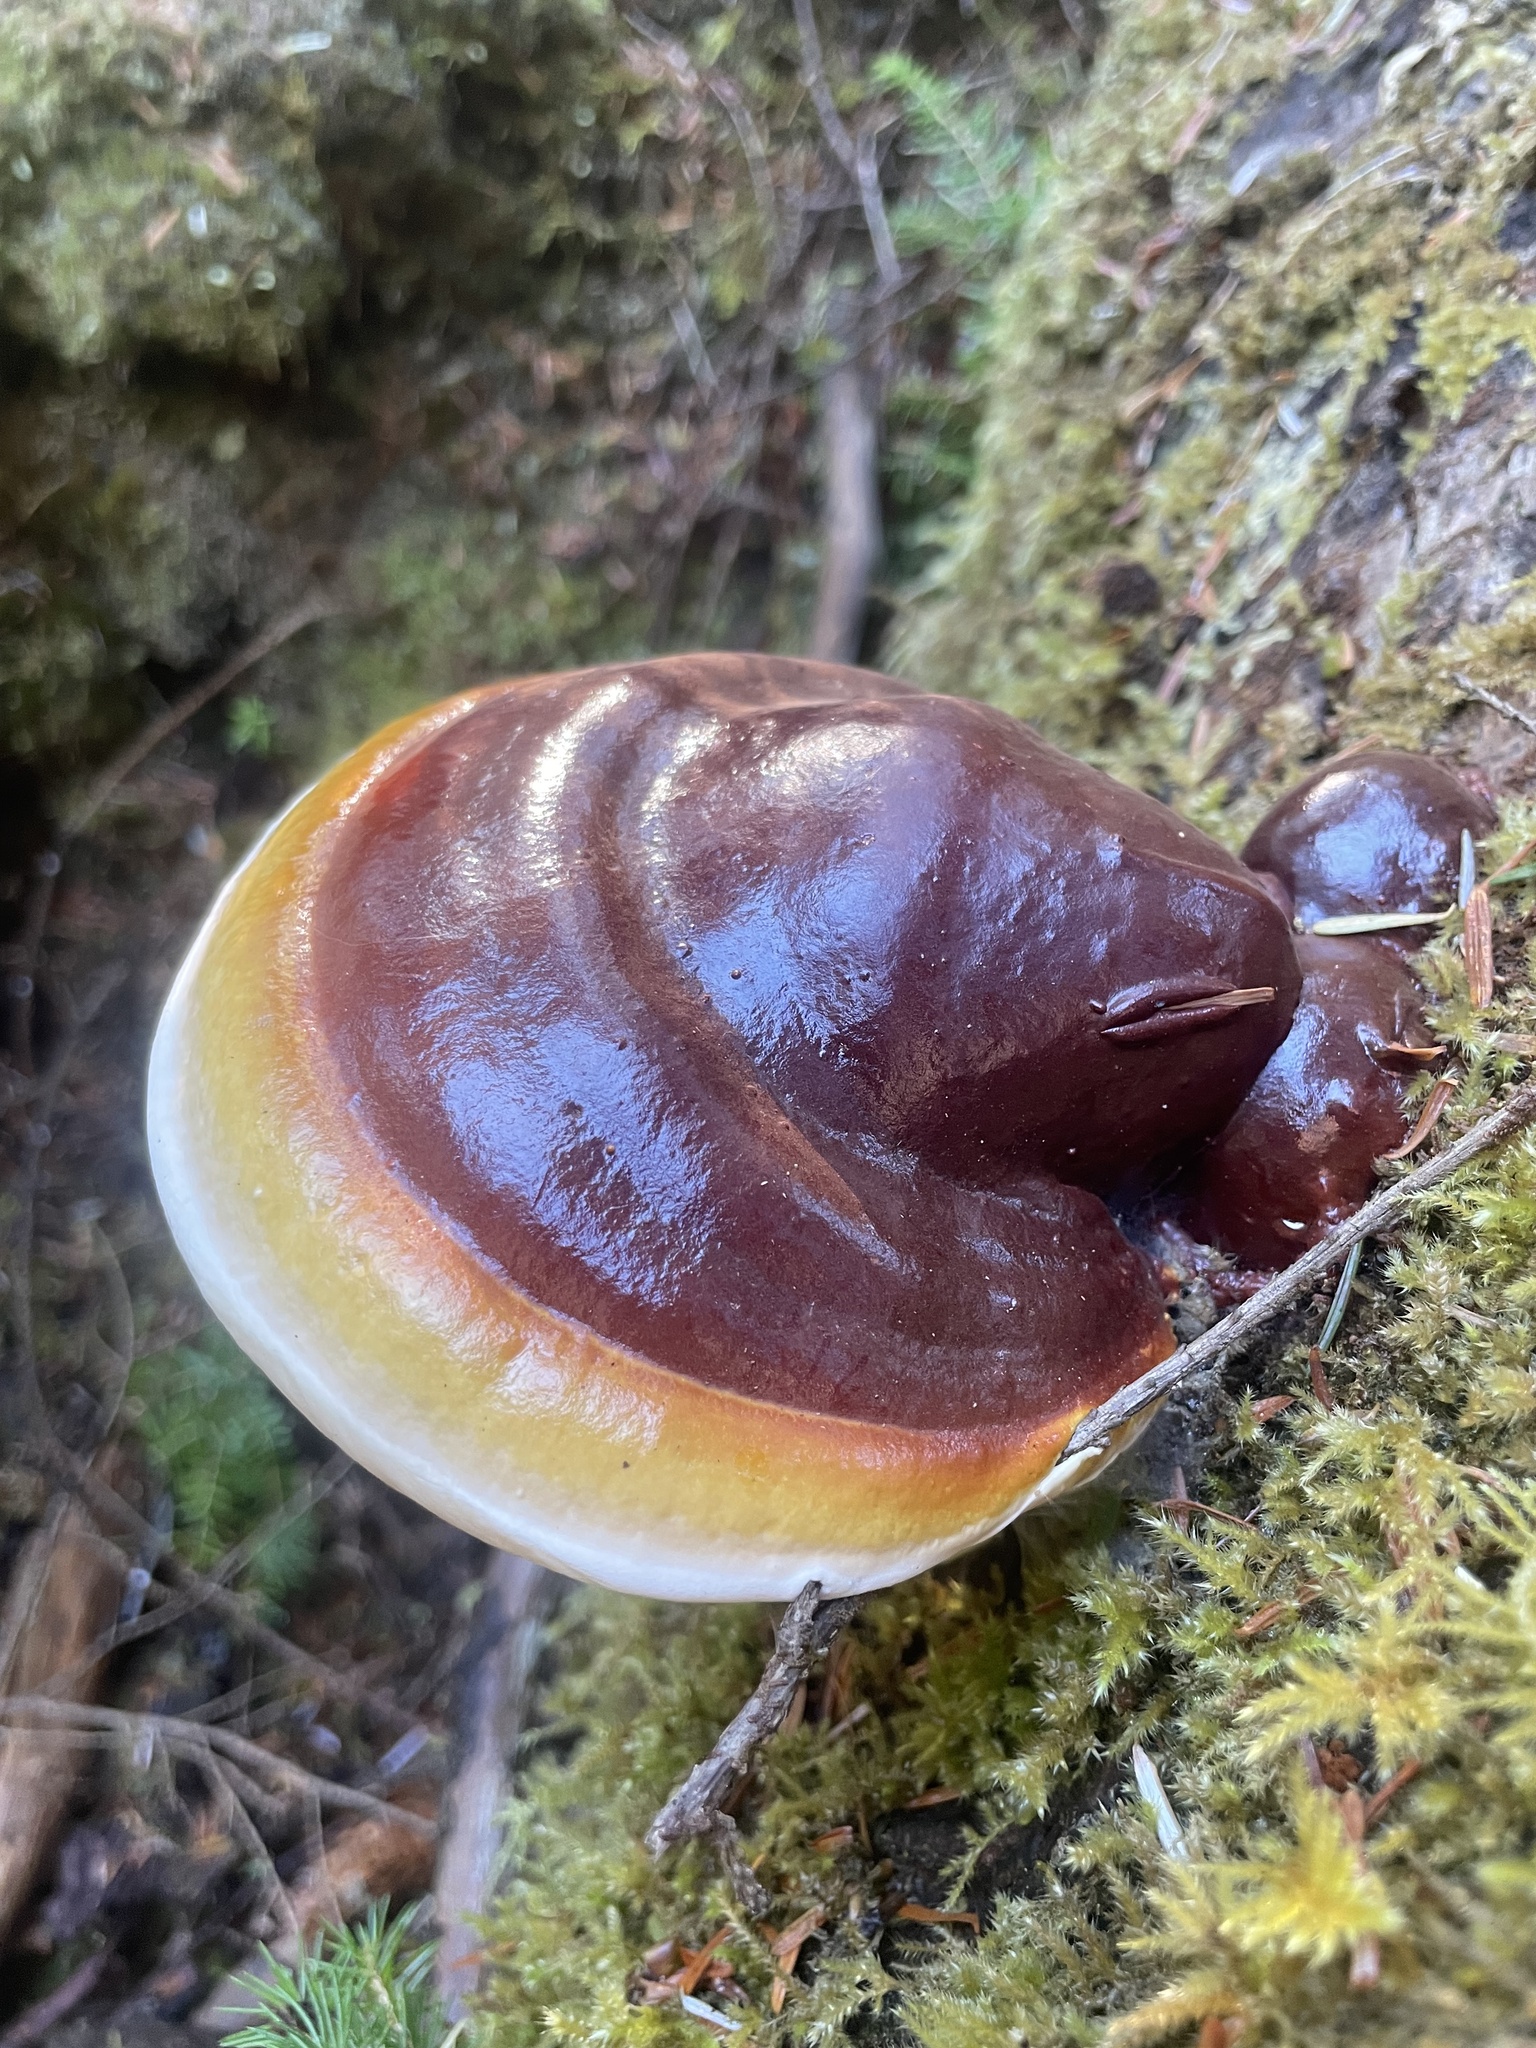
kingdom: Fungi
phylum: Basidiomycota
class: Agaricomycetes
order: Polyporales
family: Polyporaceae
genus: Ganoderma
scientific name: Ganoderma oregonense
